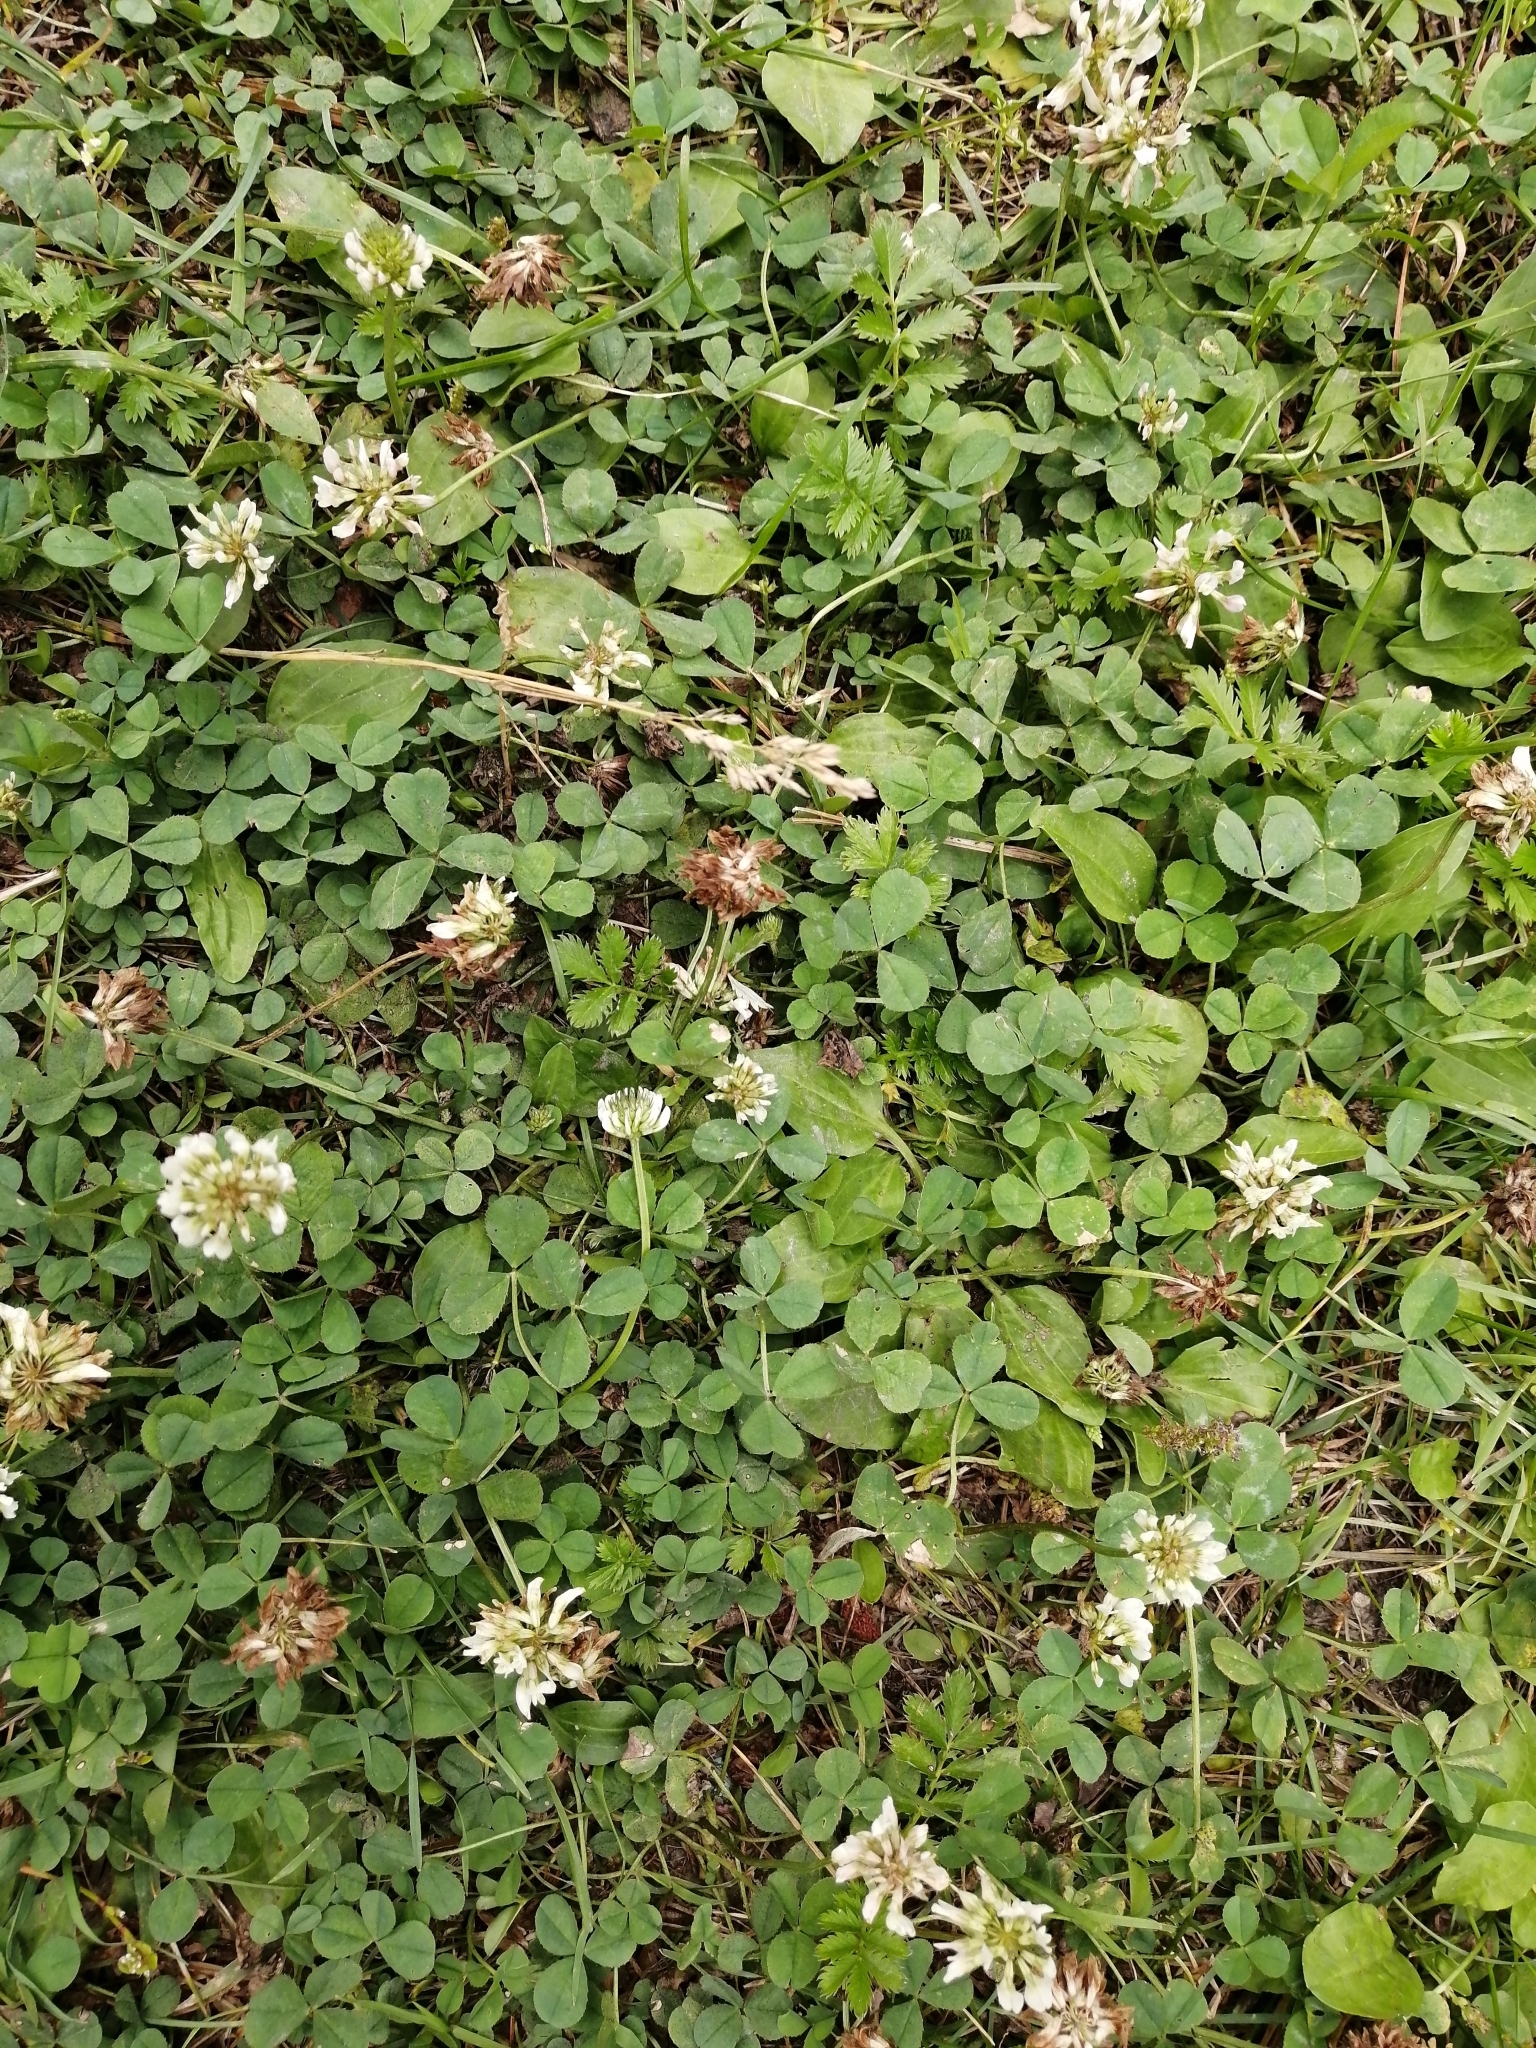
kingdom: Plantae
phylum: Tracheophyta
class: Magnoliopsida
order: Fabales
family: Fabaceae
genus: Trifolium
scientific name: Trifolium repens
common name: White clover
